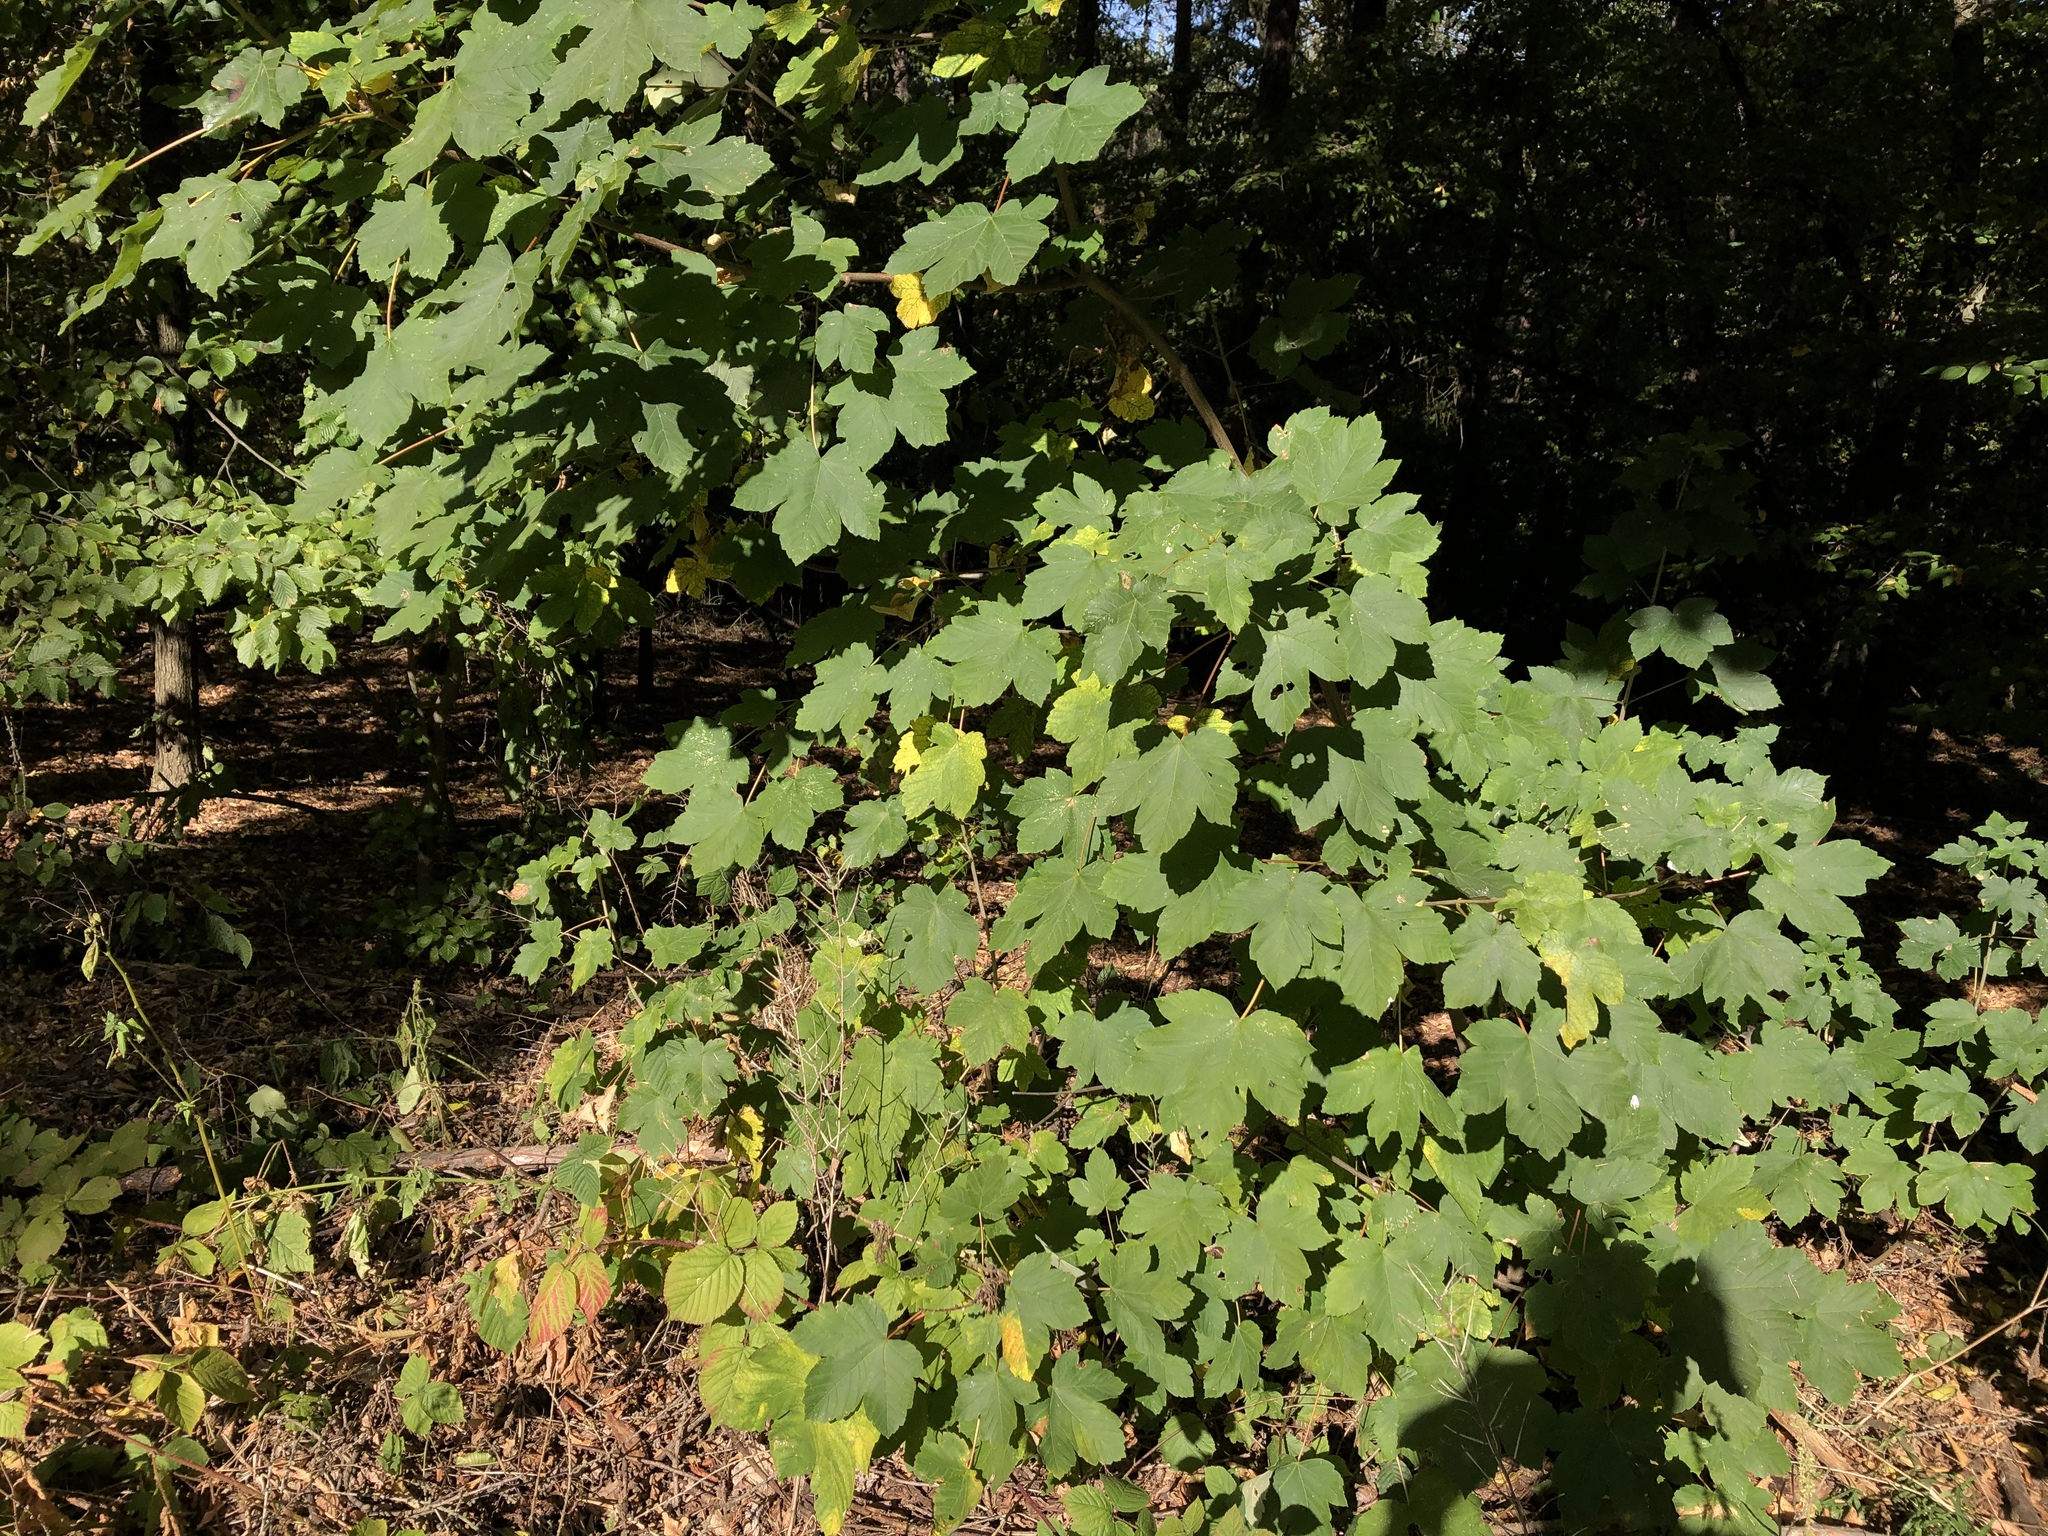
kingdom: Plantae
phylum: Tracheophyta
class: Magnoliopsida
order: Sapindales
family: Sapindaceae
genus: Acer
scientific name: Acer pseudoplatanus
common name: Sycamore
